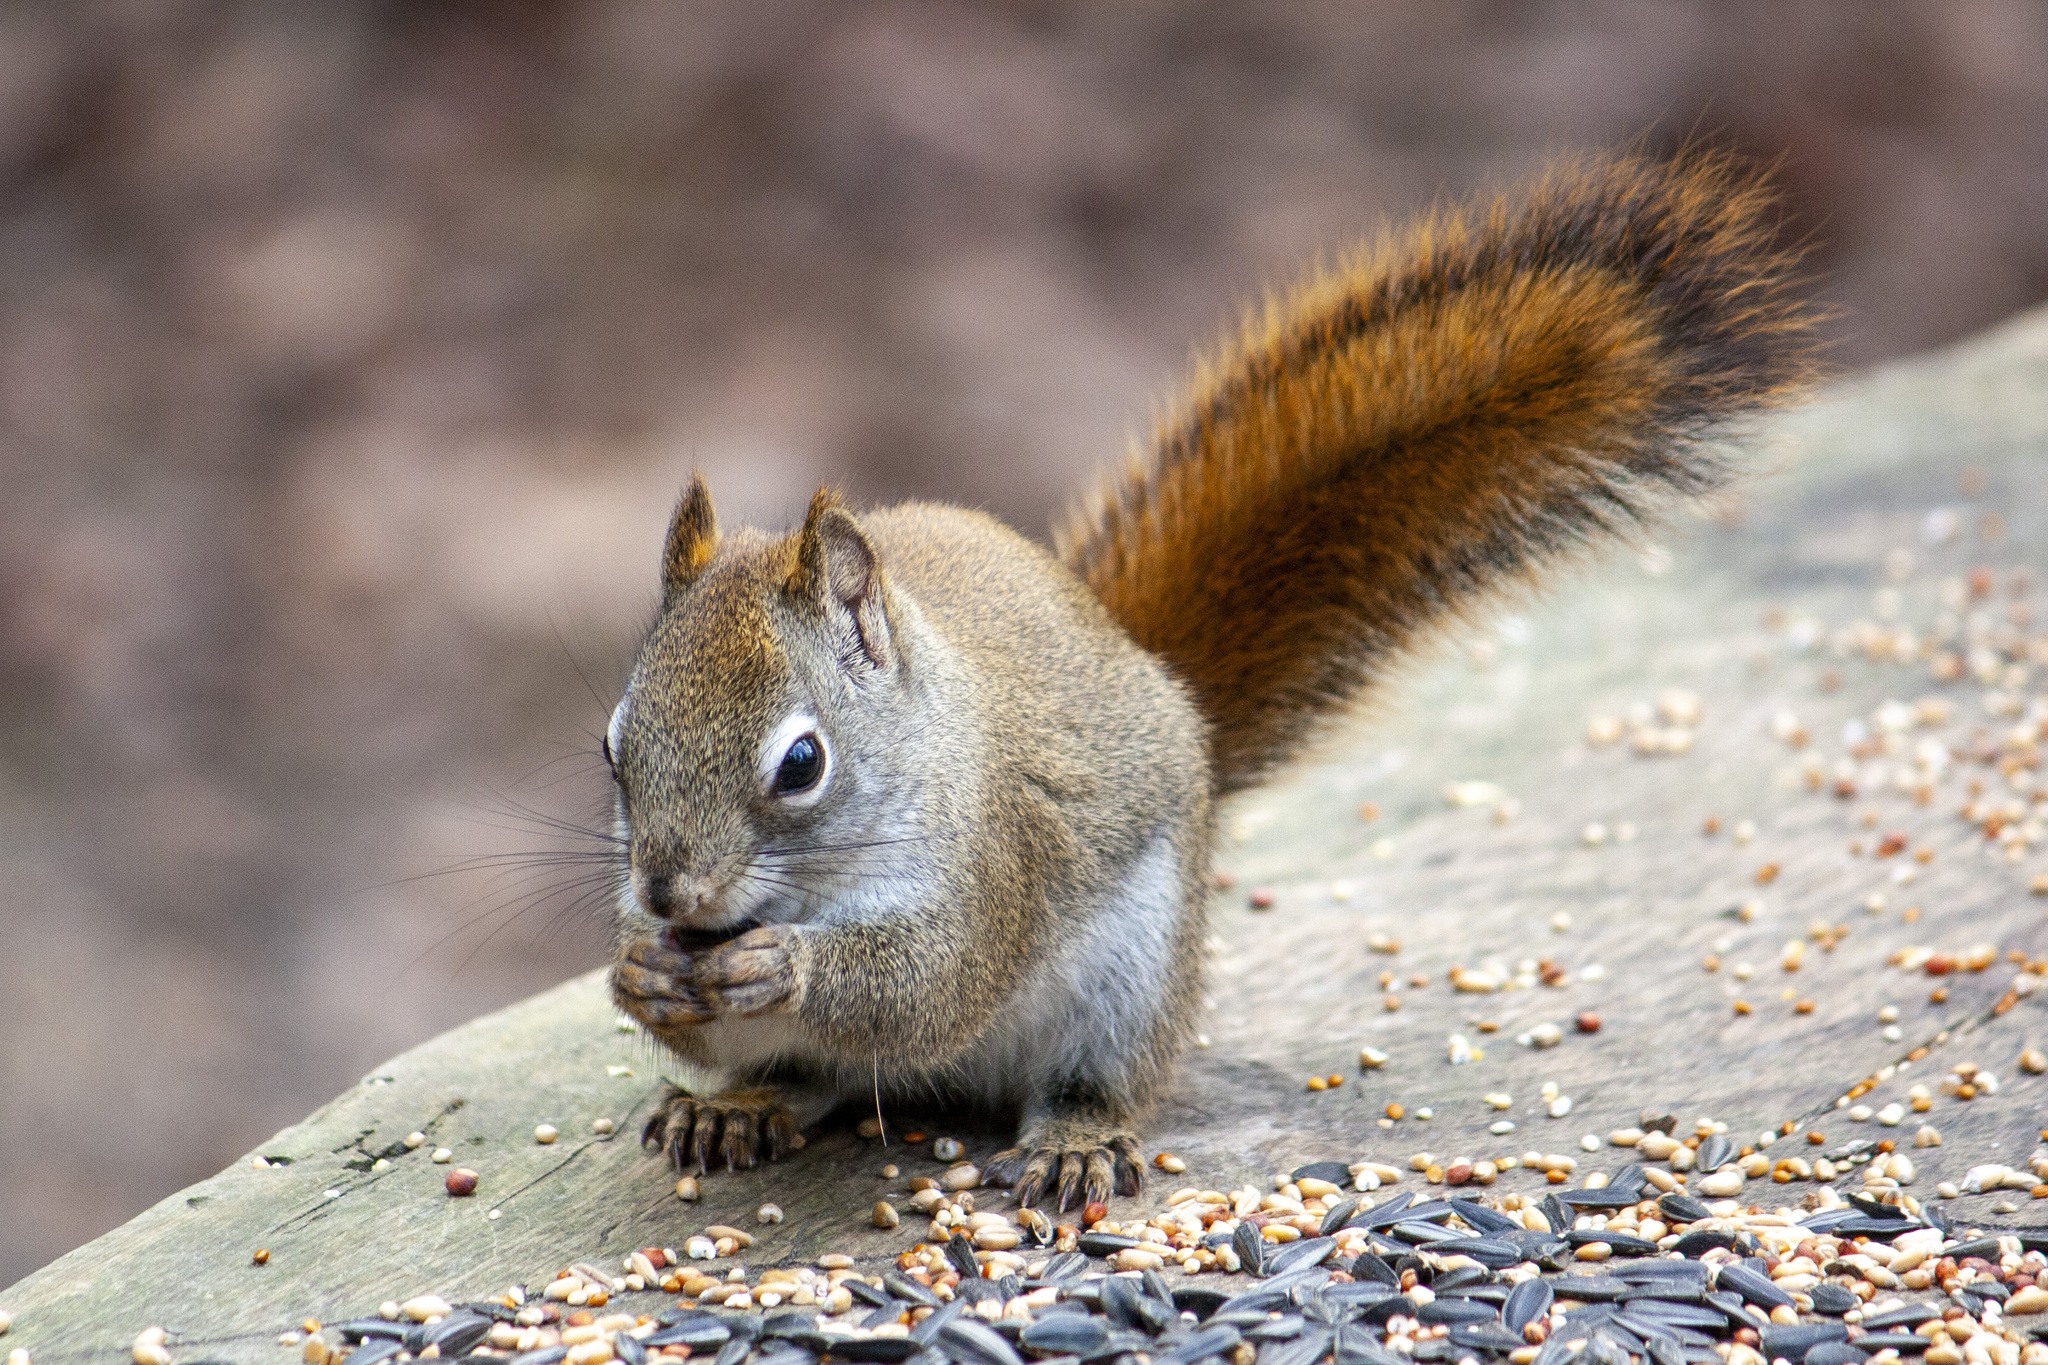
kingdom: Animalia
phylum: Chordata
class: Mammalia
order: Rodentia
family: Sciuridae
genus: Tamiasciurus
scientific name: Tamiasciurus hudsonicus
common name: Red squirrel
